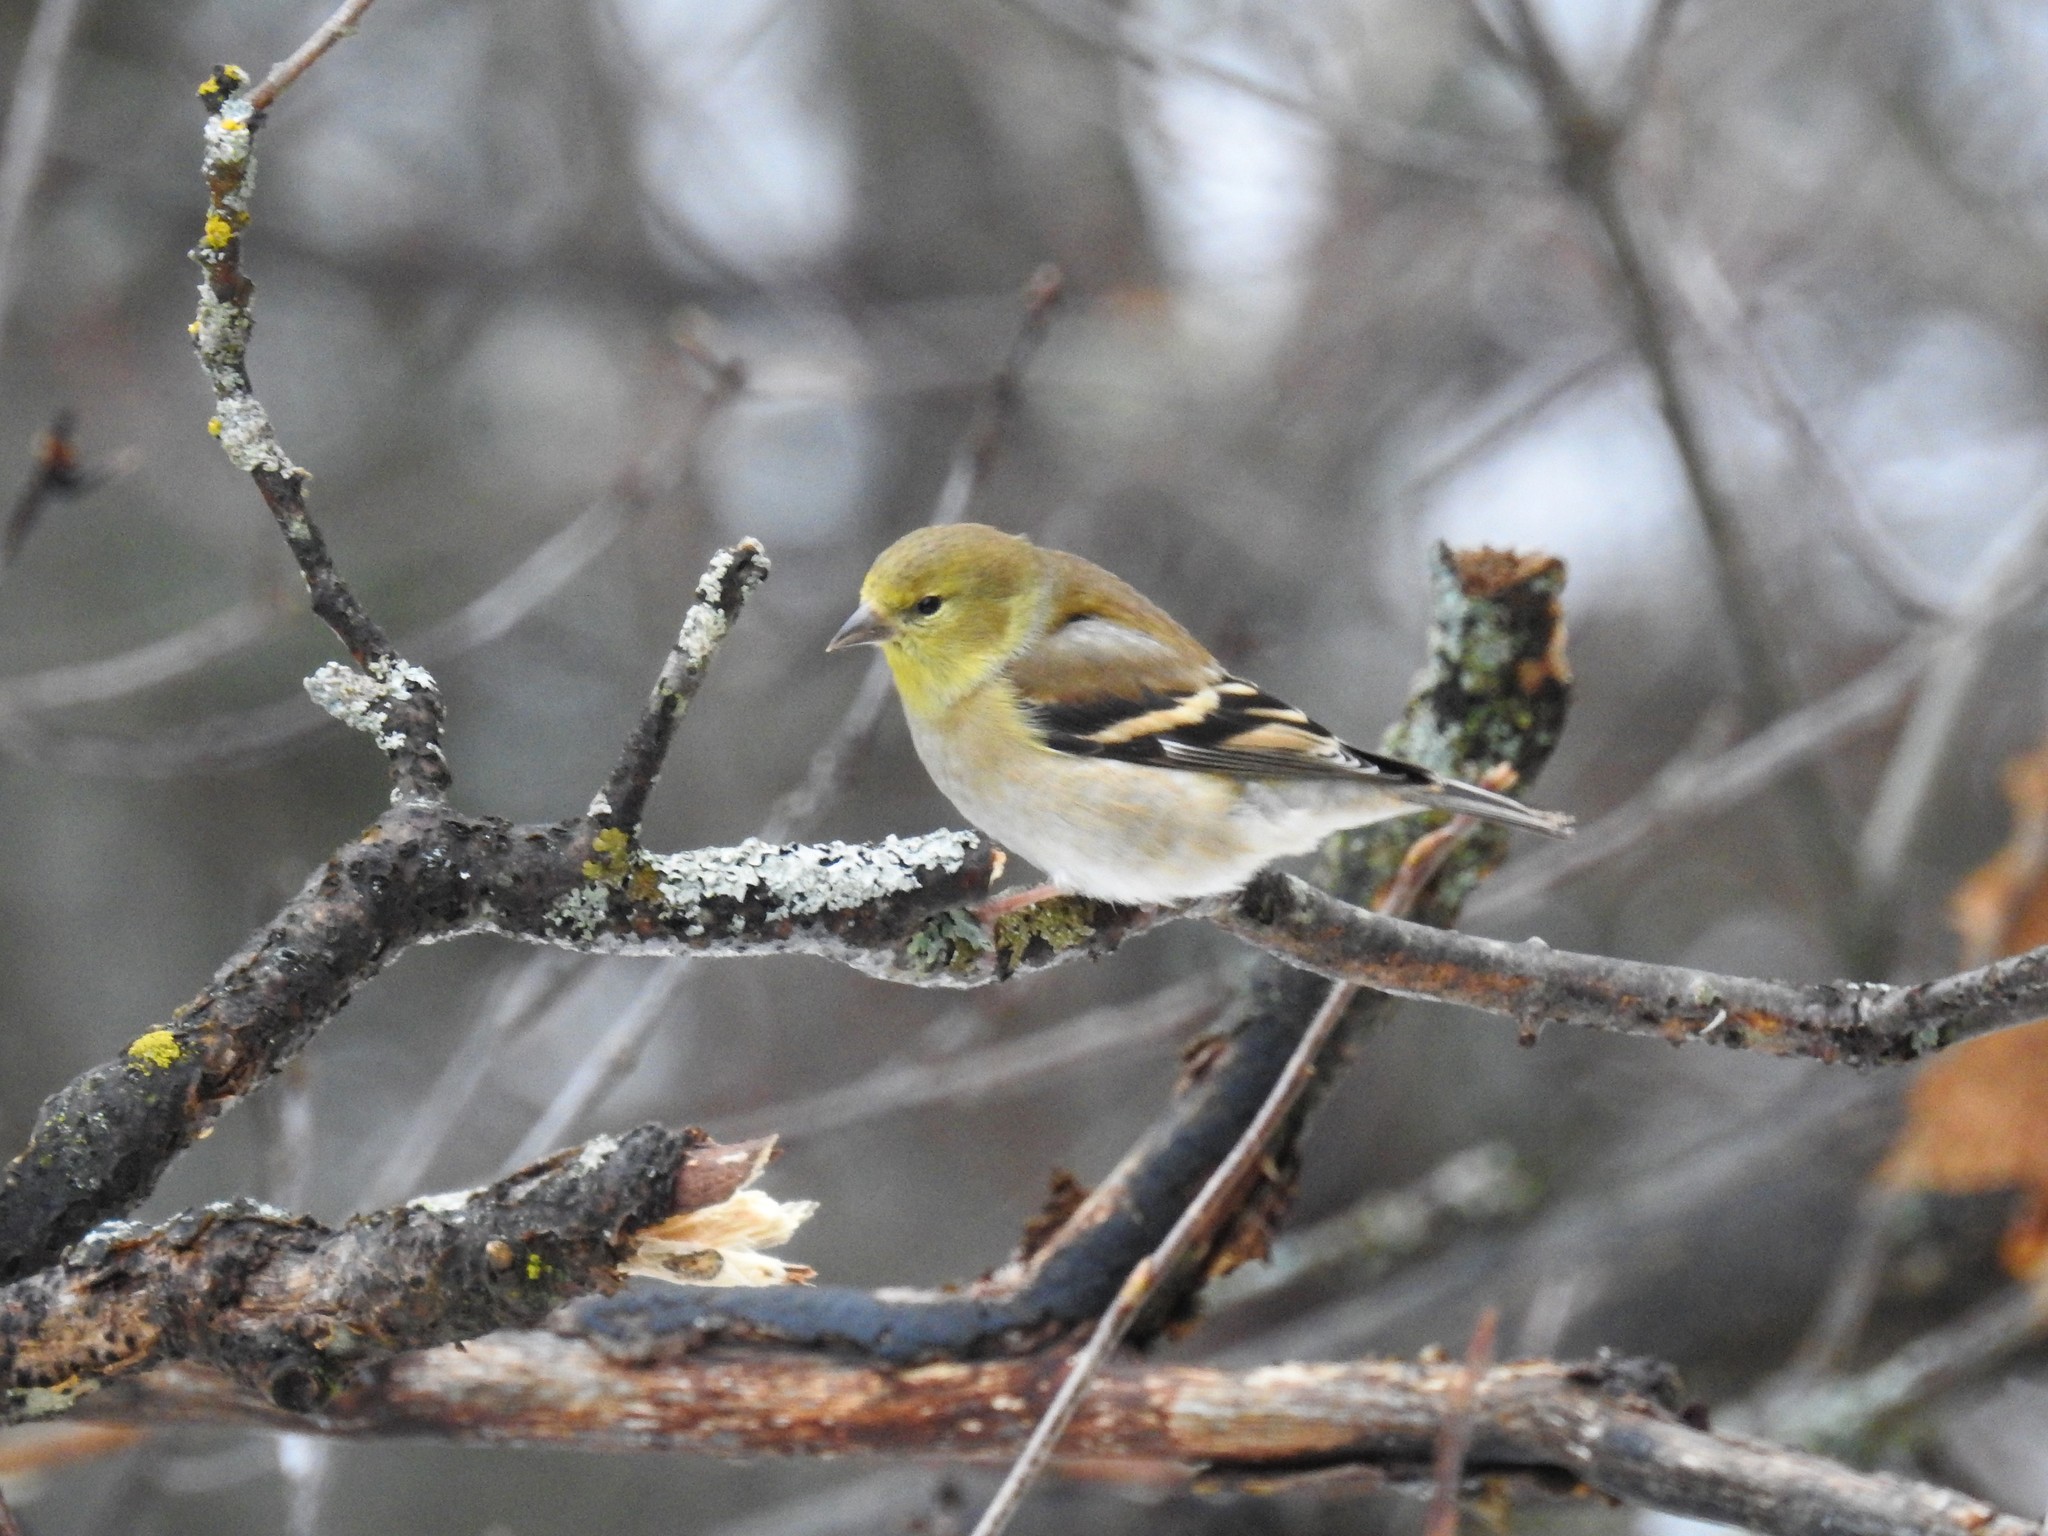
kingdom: Animalia
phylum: Chordata
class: Aves
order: Passeriformes
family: Fringillidae
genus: Spinus
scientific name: Spinus tristis
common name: American goldfinch
